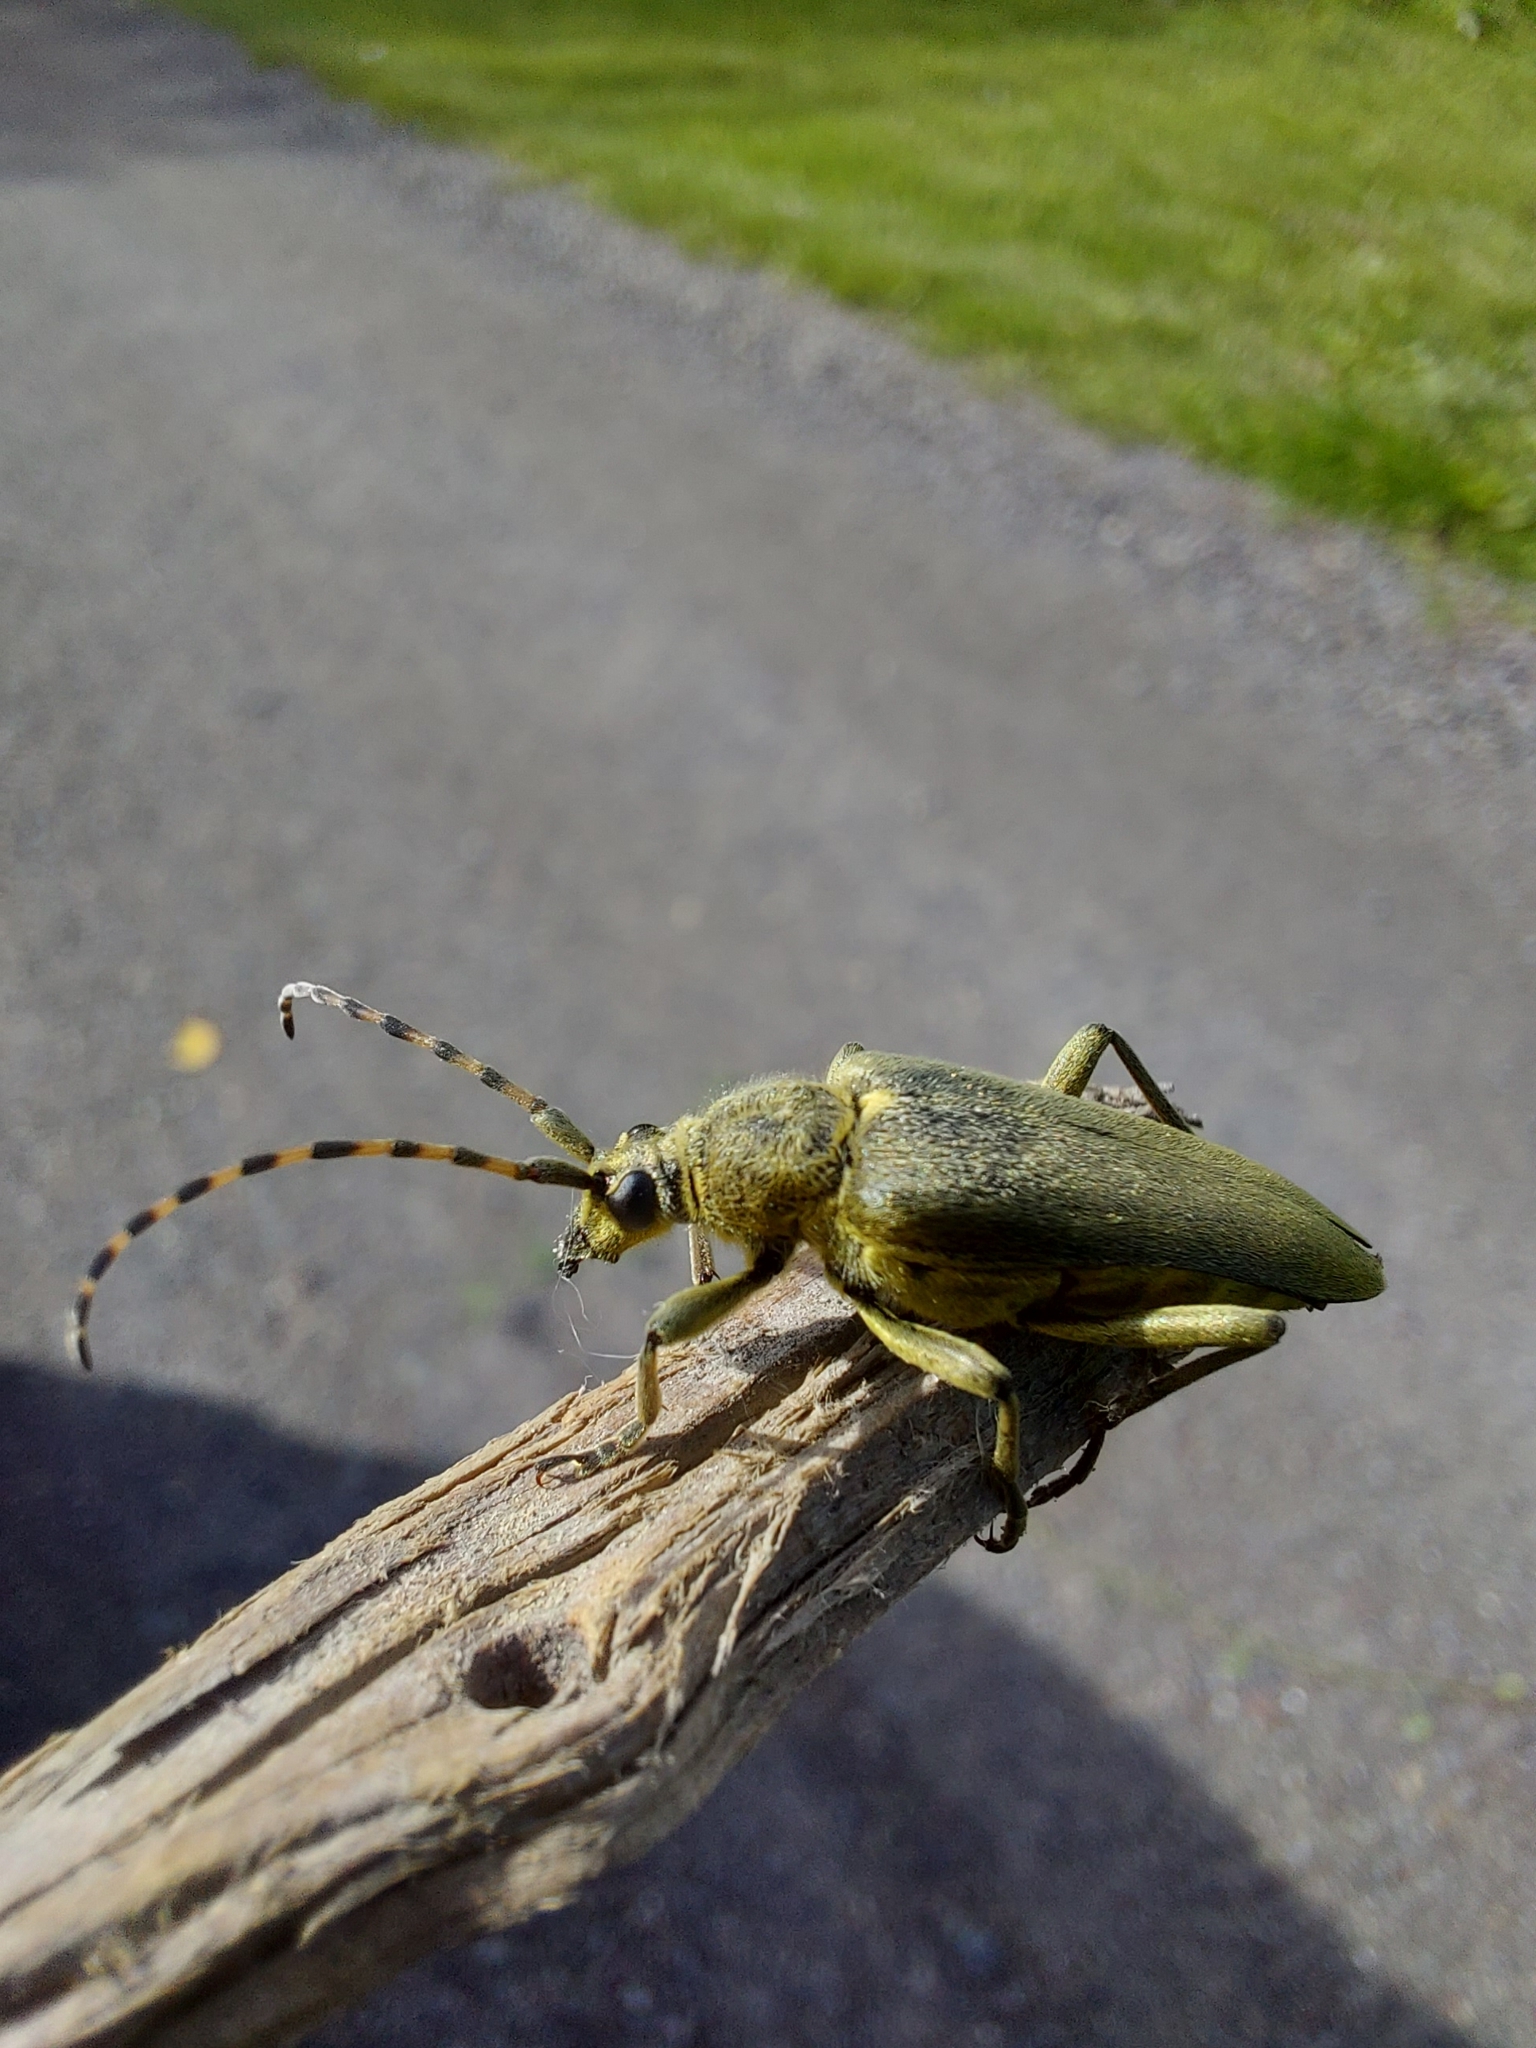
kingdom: Animalia
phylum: Arthropoda
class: Insecta
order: Coleoptera
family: Cerambycidae
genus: Lepturobosca
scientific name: Lepturobosca virens
